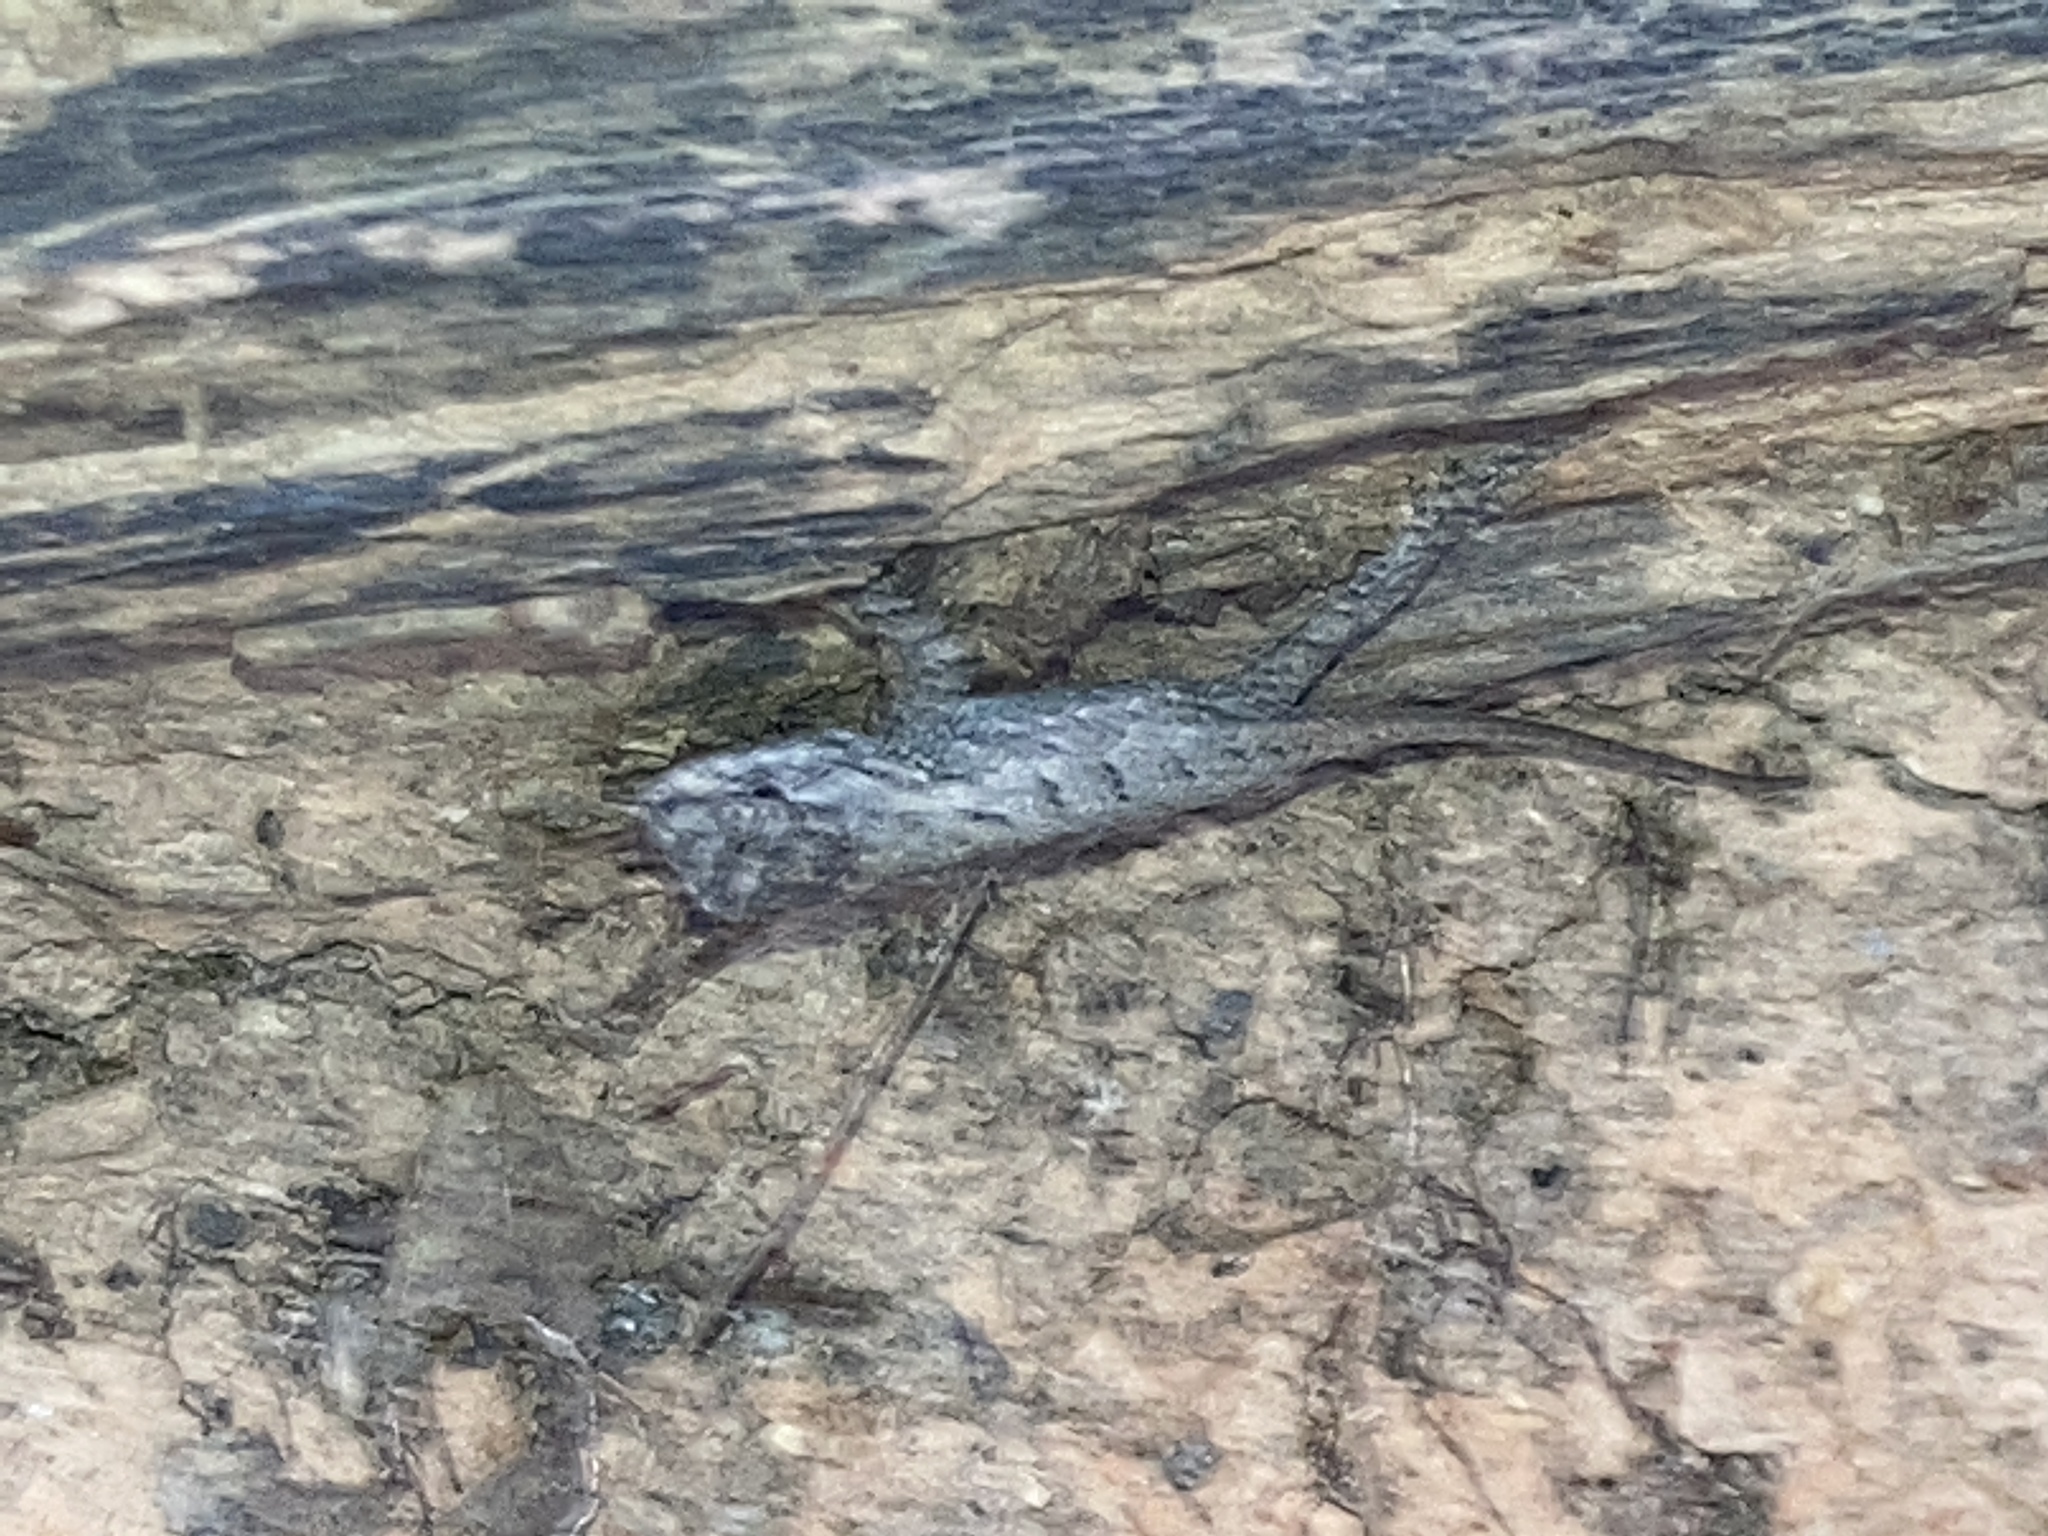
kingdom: Animalia
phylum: Chordata
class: Squamata
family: Phrynosomatidae
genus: Sceloporus
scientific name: Sceloporus undulatus
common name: Eastern fence lizard
